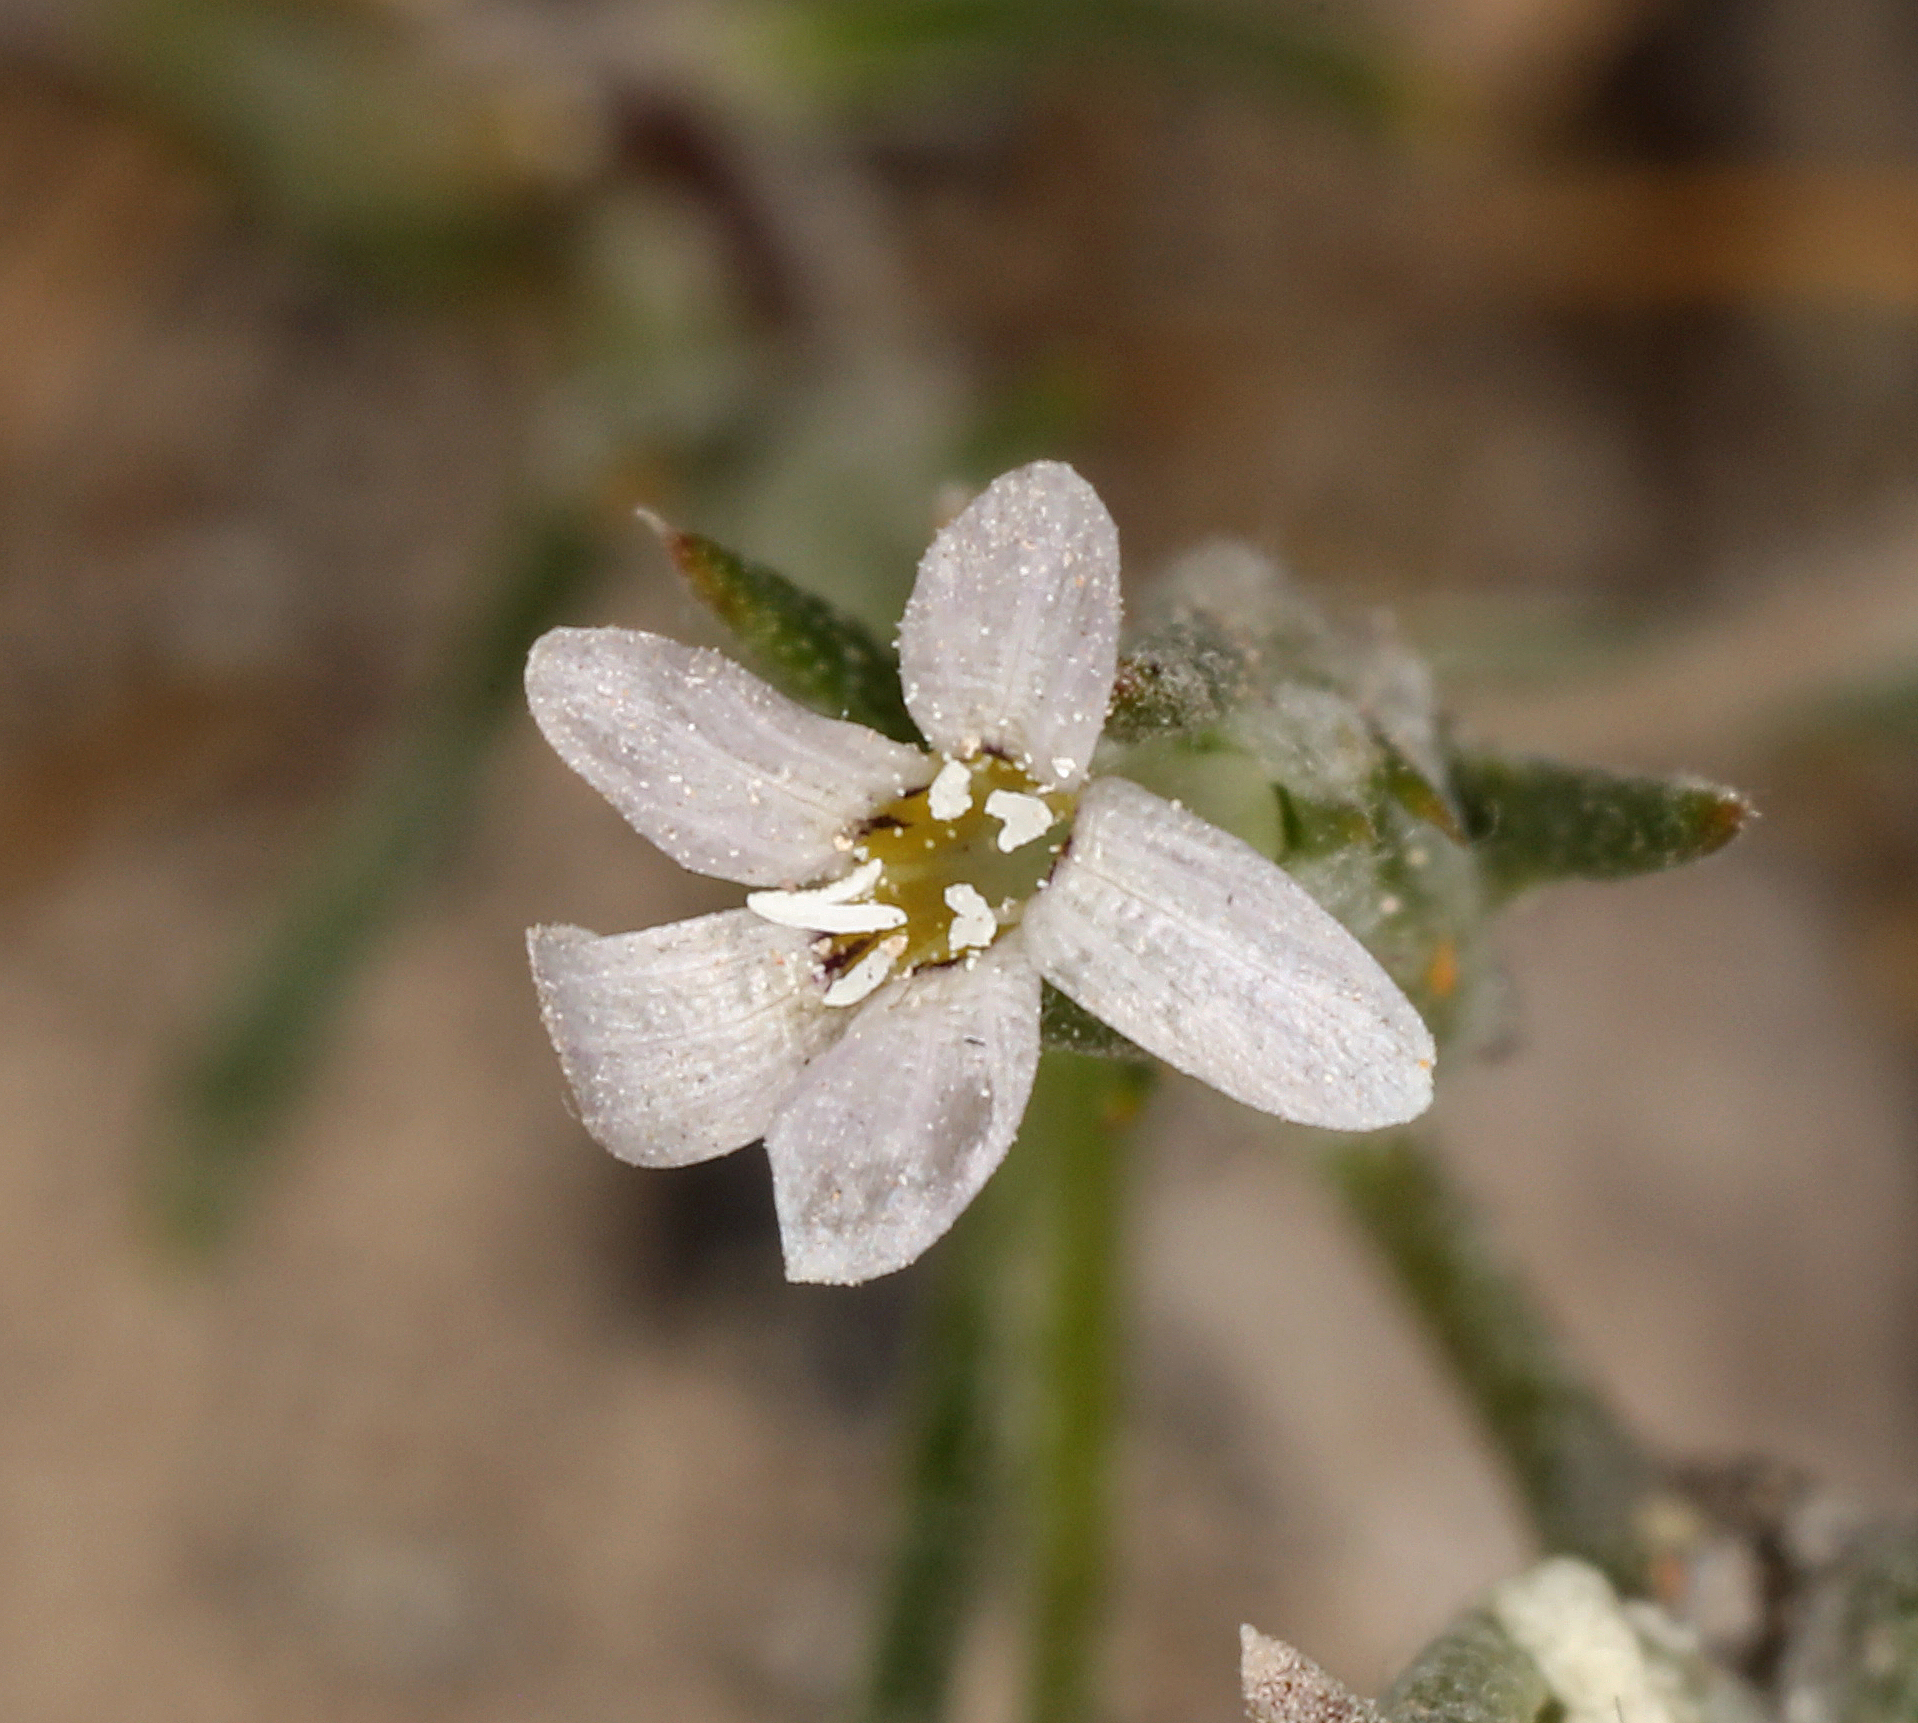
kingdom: Plantae
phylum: Tracheophyta
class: Magnoliopsida
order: Ericales
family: Polemoniaceae
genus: Eriastrum
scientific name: Eriastrum signatum
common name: Great basin woollystar
